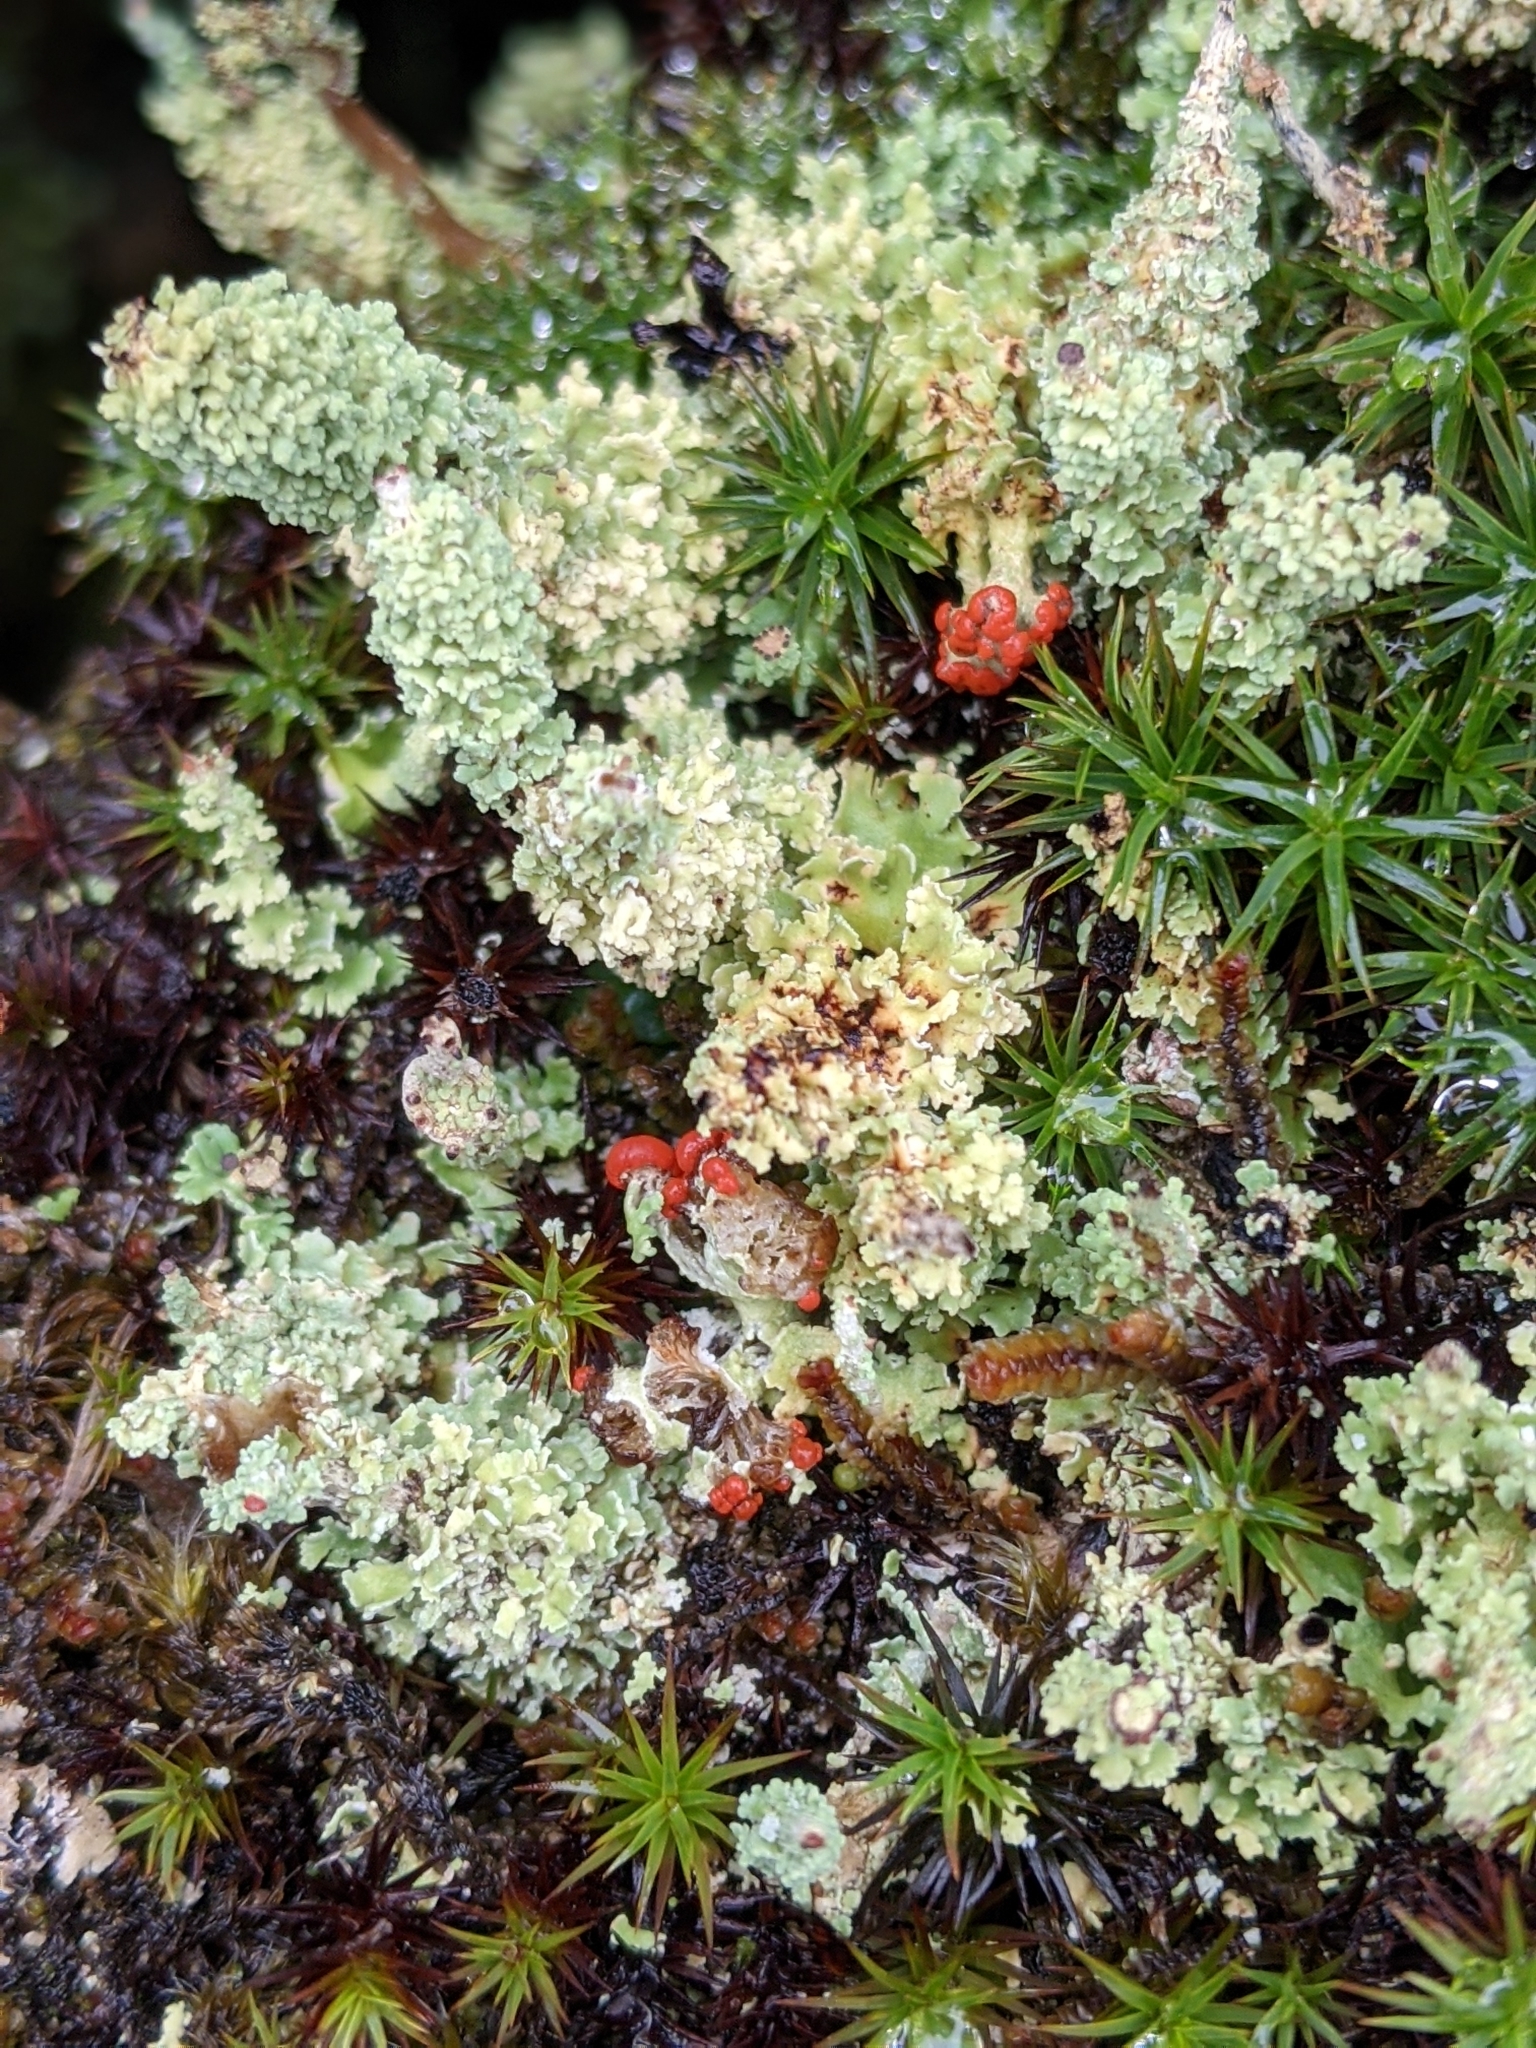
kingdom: Fungi
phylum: Ascomycota
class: Lecanoromycetes
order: Lecanorales
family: Cladoniaceae
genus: Cladonia
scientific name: Cladonia bellidiflora
